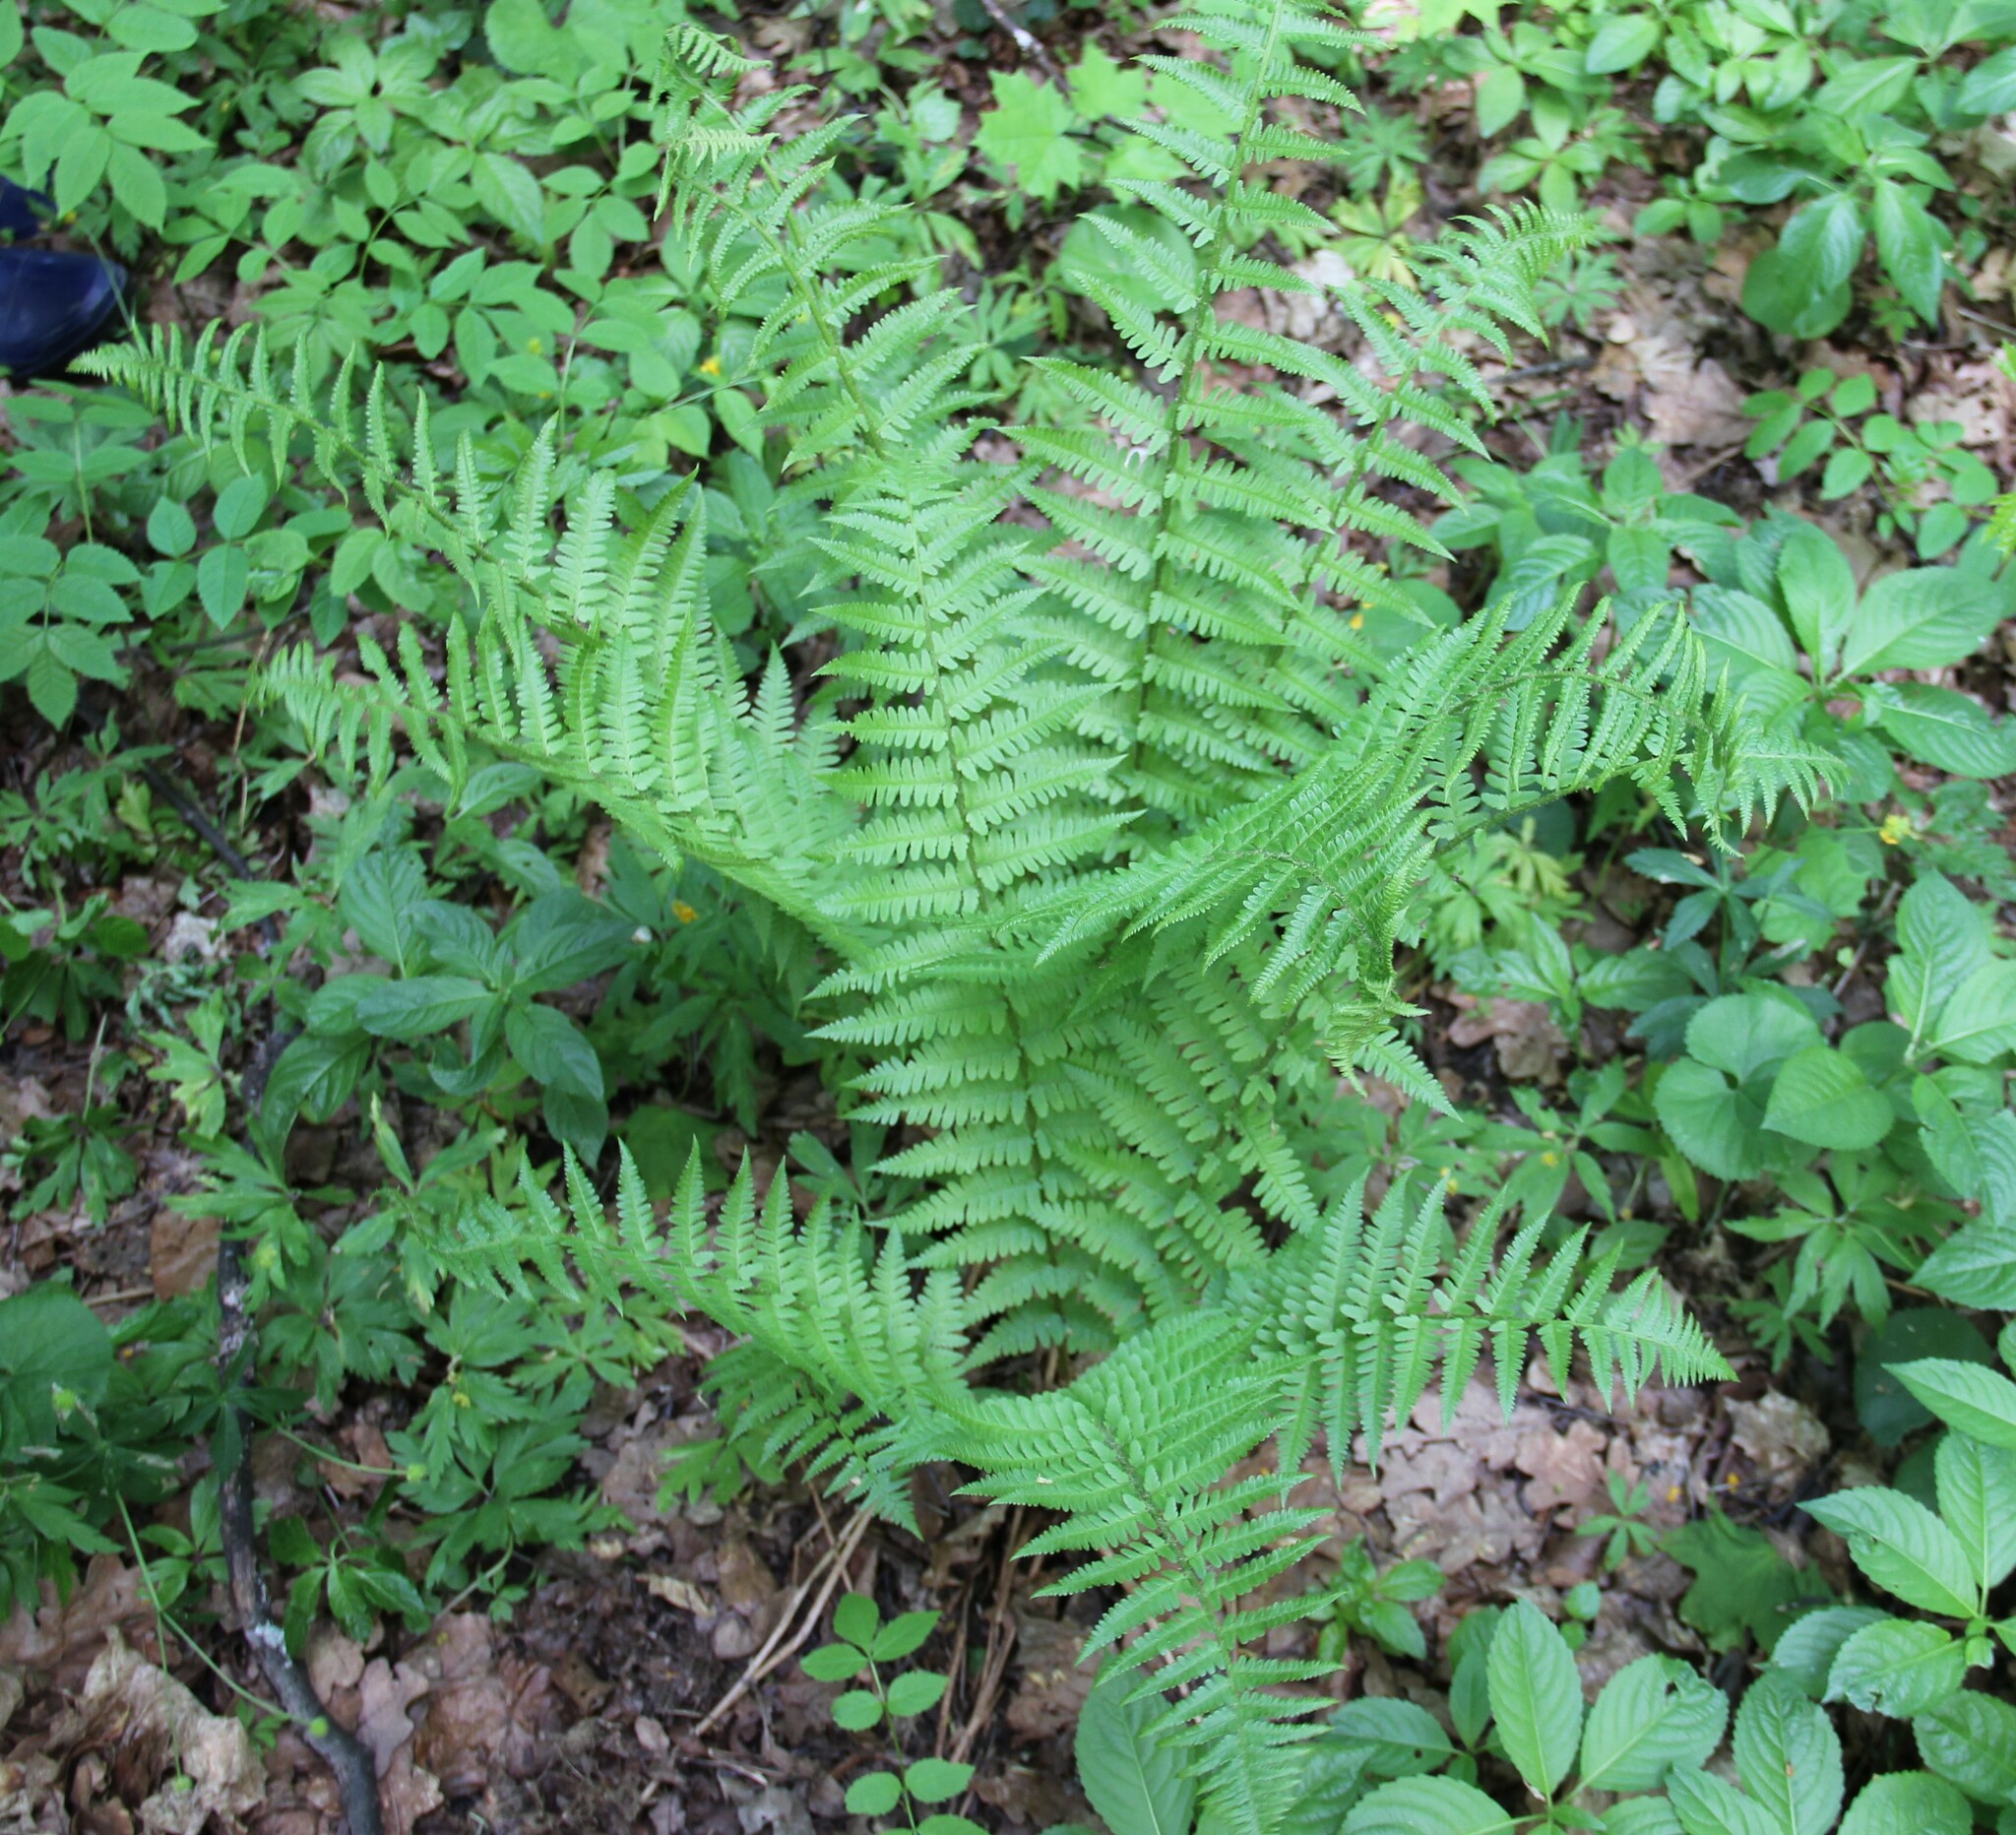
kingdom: Plantae
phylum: Tracheophyta
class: Polypodiopsida
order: Polypodiales
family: Dryopteridaceae
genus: Dryopteris
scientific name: Dryopteris filix-mas
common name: Male fern
